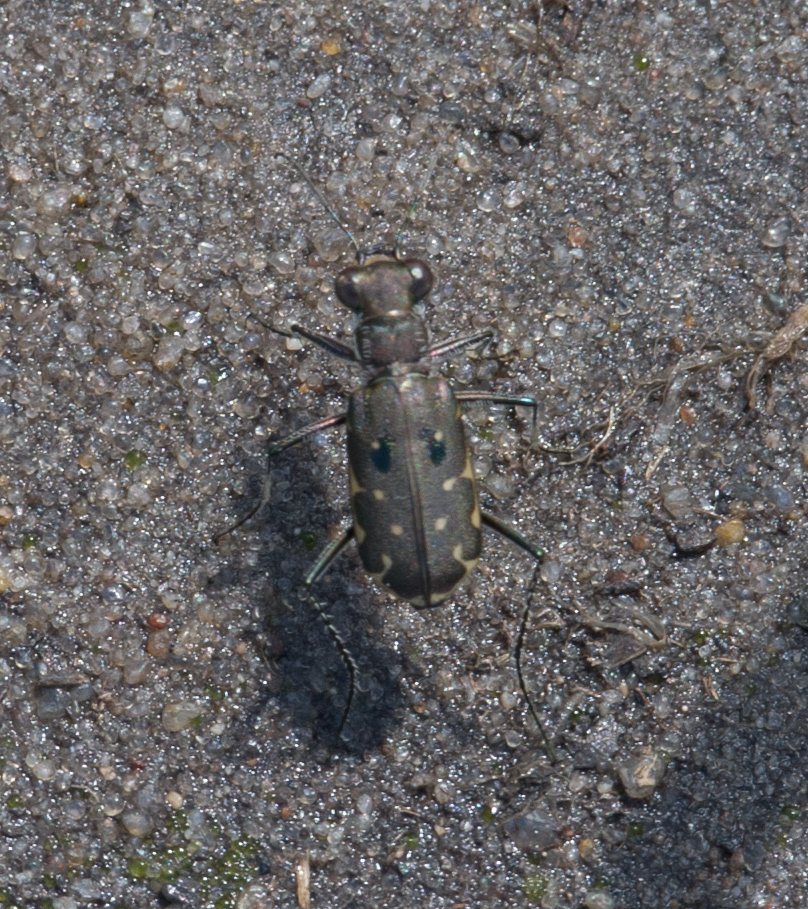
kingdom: Animalia
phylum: Arthropoda
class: Insecta
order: Coleoptera
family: Carabidae
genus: Myriochila
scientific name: Myriochila melancholica
